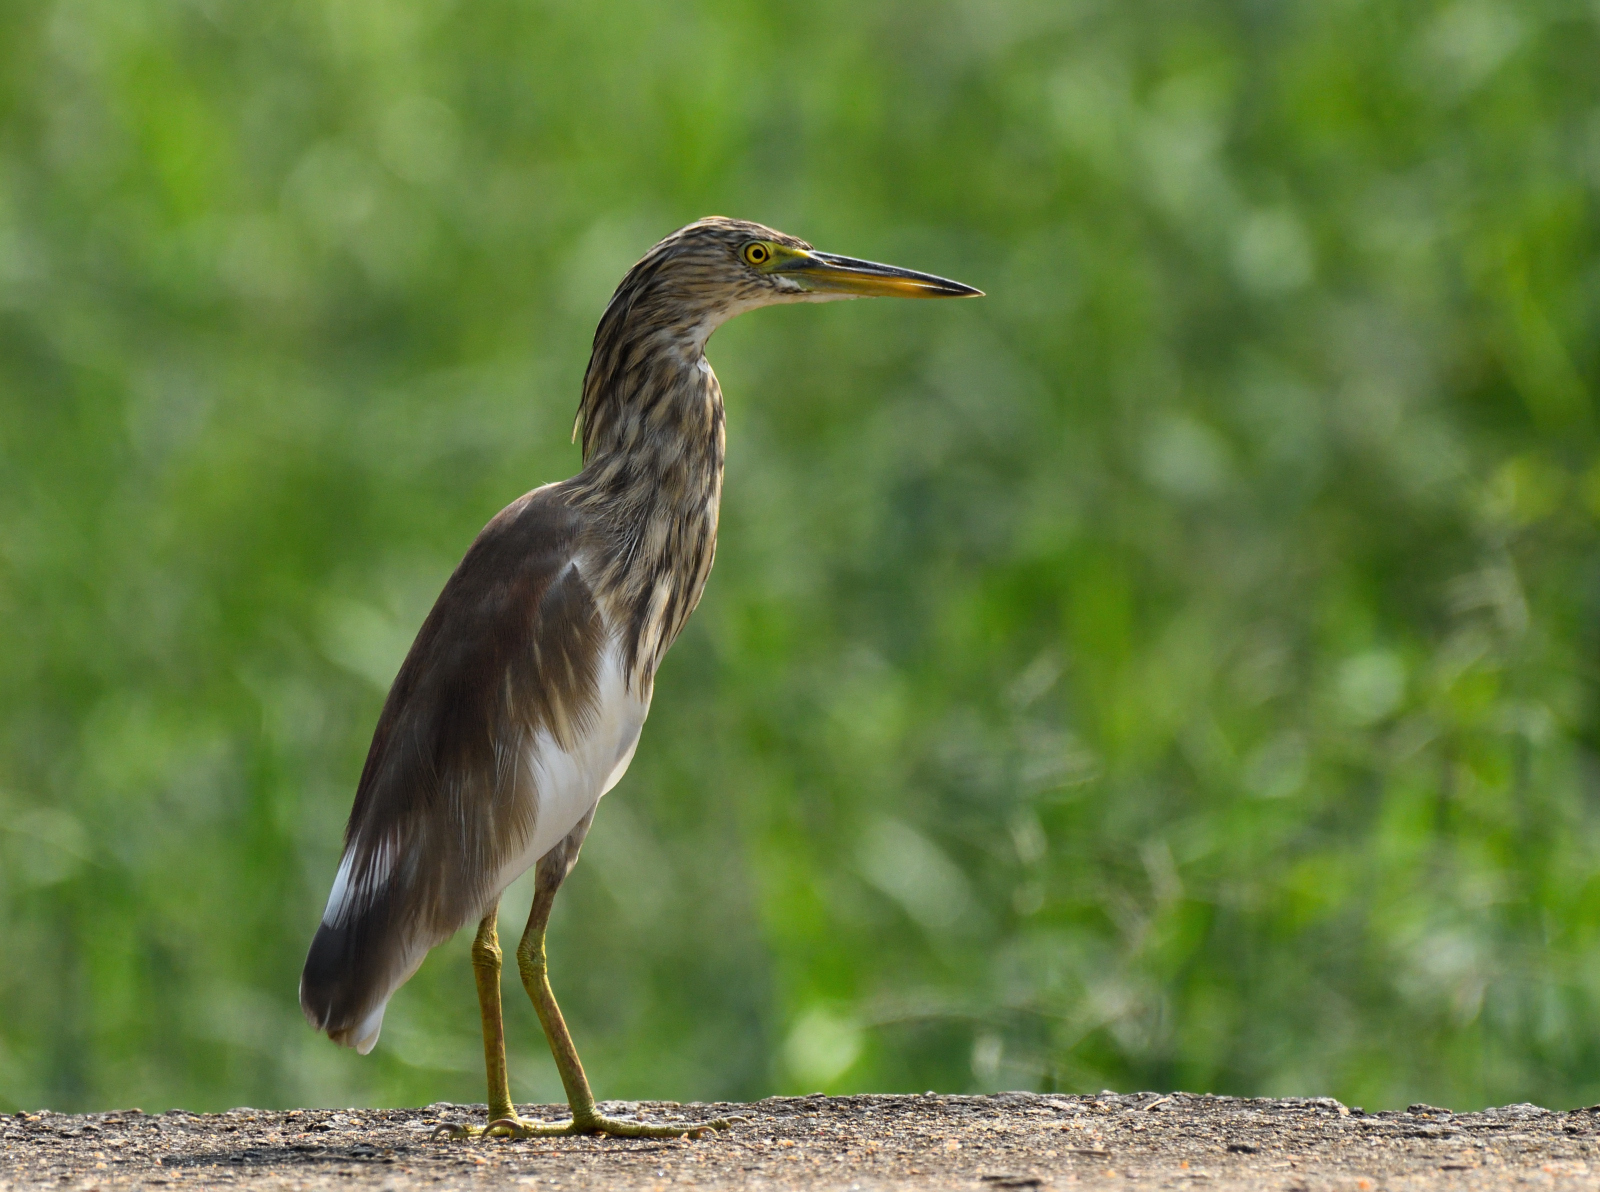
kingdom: Animalia
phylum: Chordata
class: Aves
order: Pelecaniformes
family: Ardeidae
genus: Ardeola
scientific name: Ardeola grayii
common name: Indian pond heron
